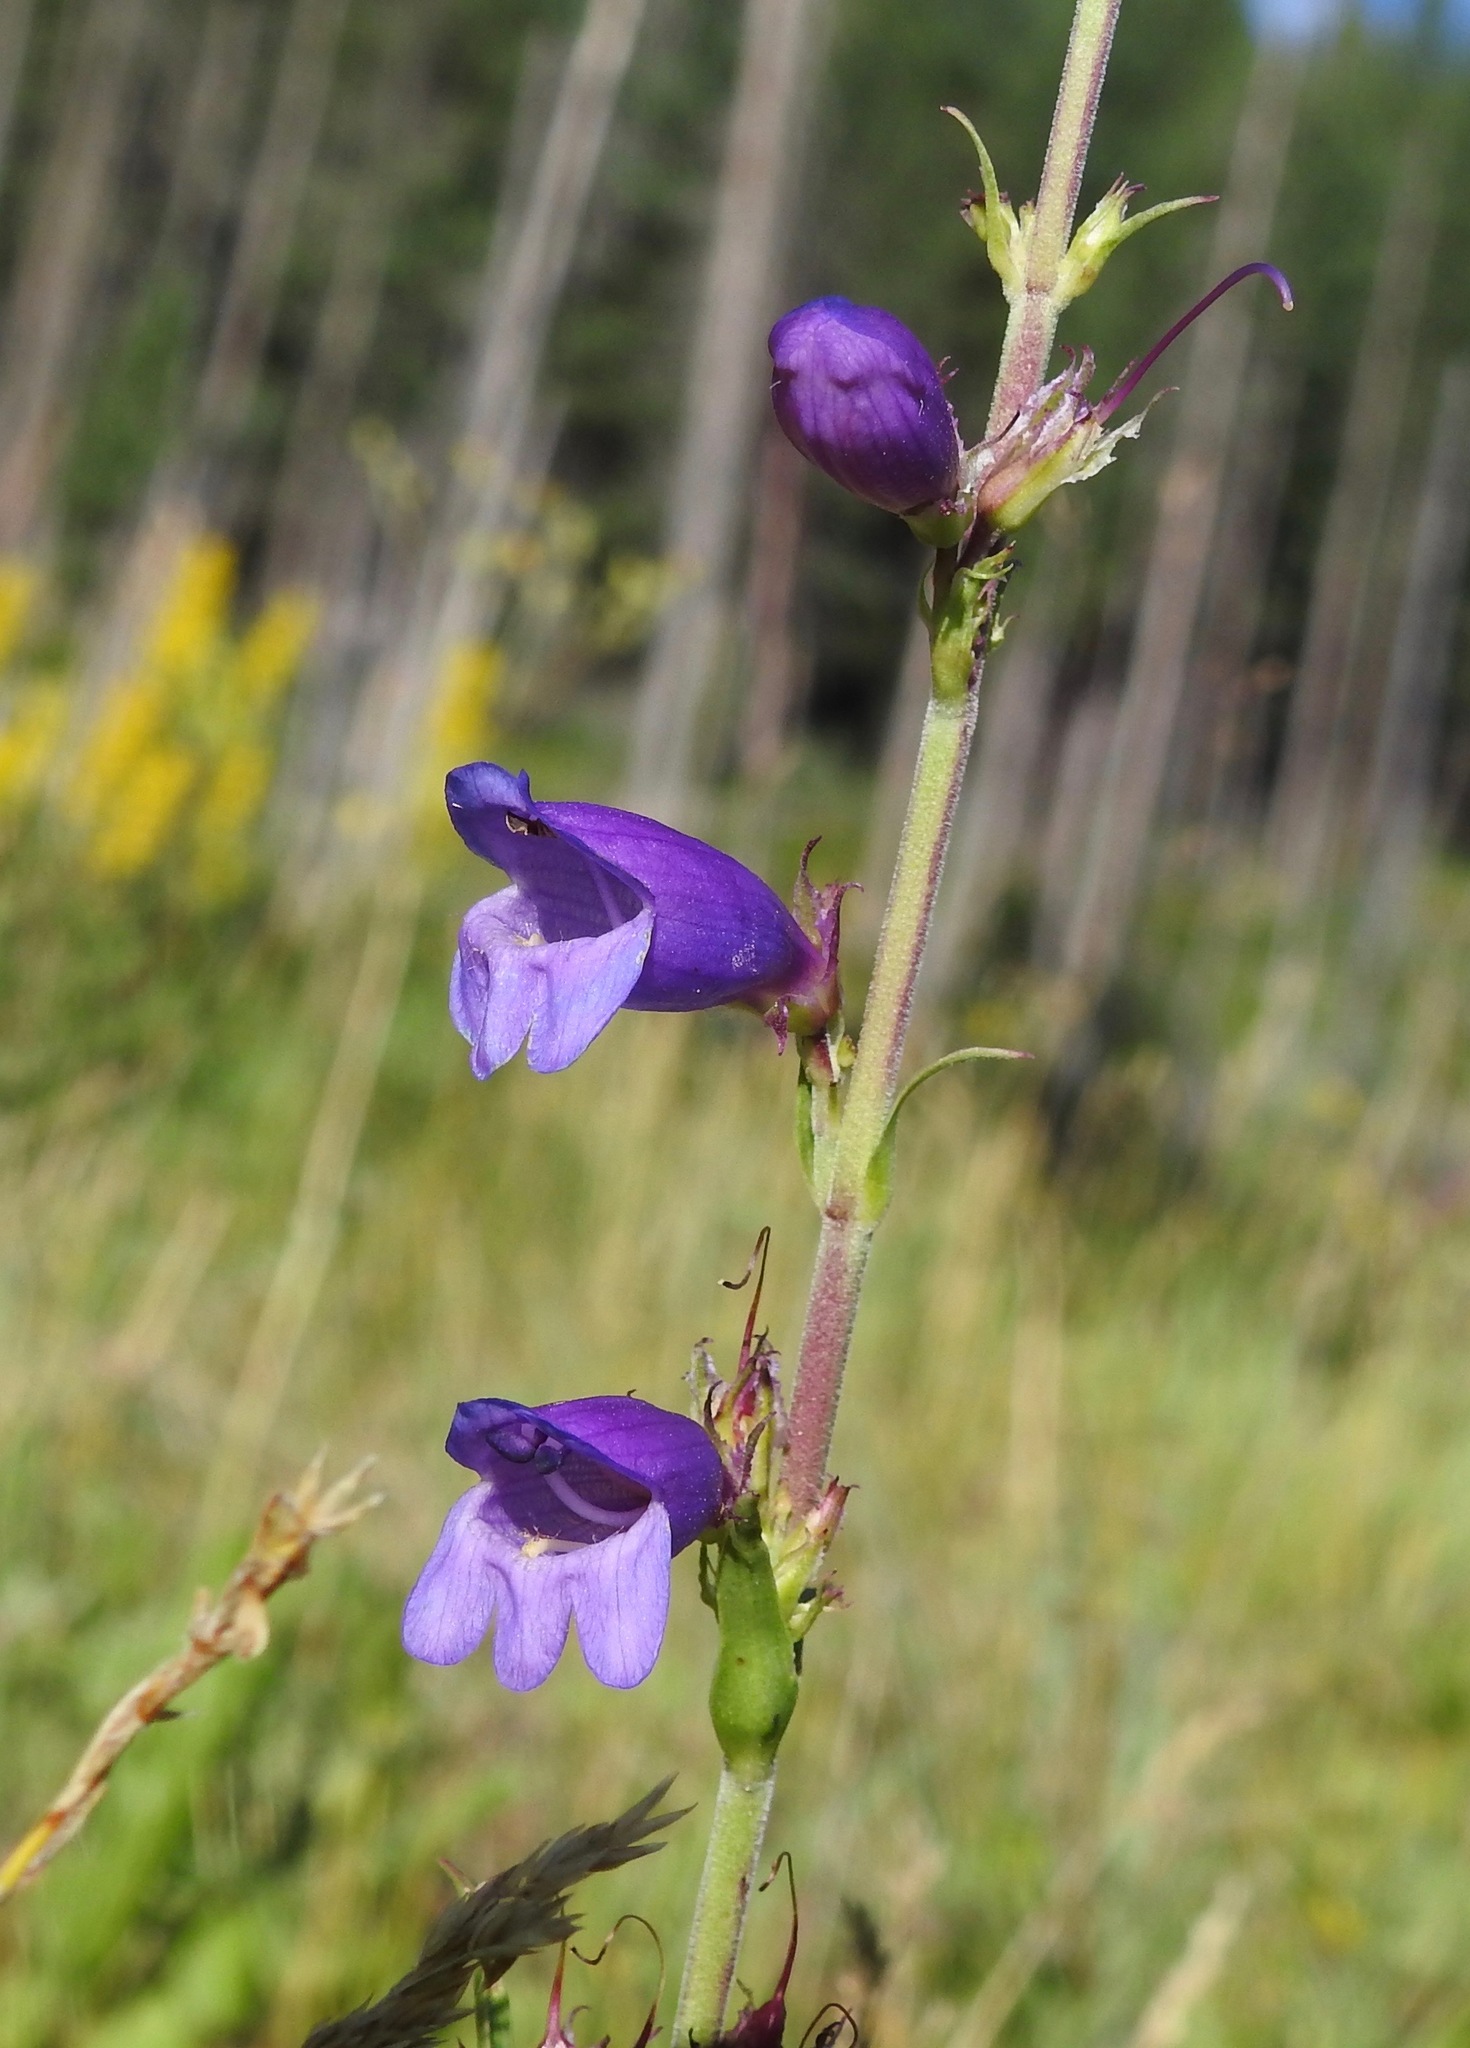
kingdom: Plantae
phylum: Tracheophyta
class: Magnoliopsida
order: Lamiales
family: Plantaginaceae
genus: Penstemon
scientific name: Penstemon deaveri
